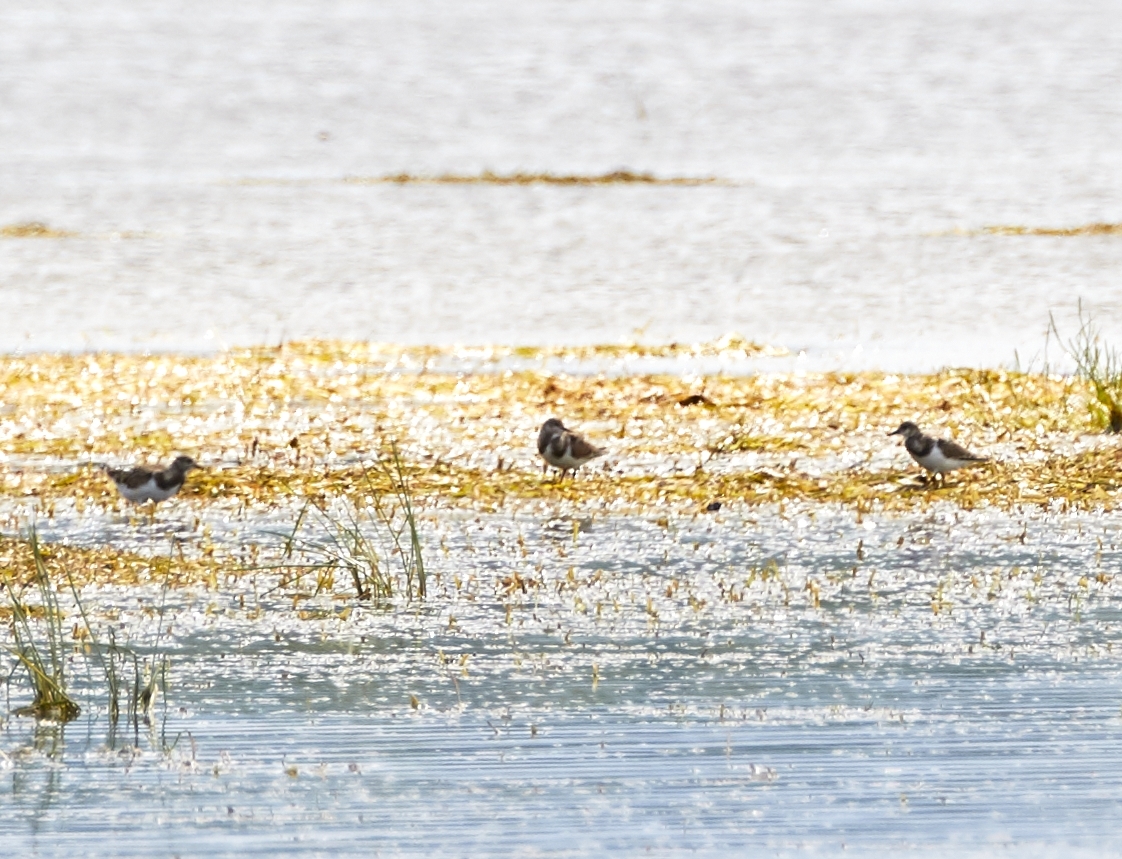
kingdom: Animalia
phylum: Chordata
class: Aves
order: Charadriiformes
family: Scolopacidae
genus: Arenaria
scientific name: Arenaria interpres
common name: Ruddy turnstone
